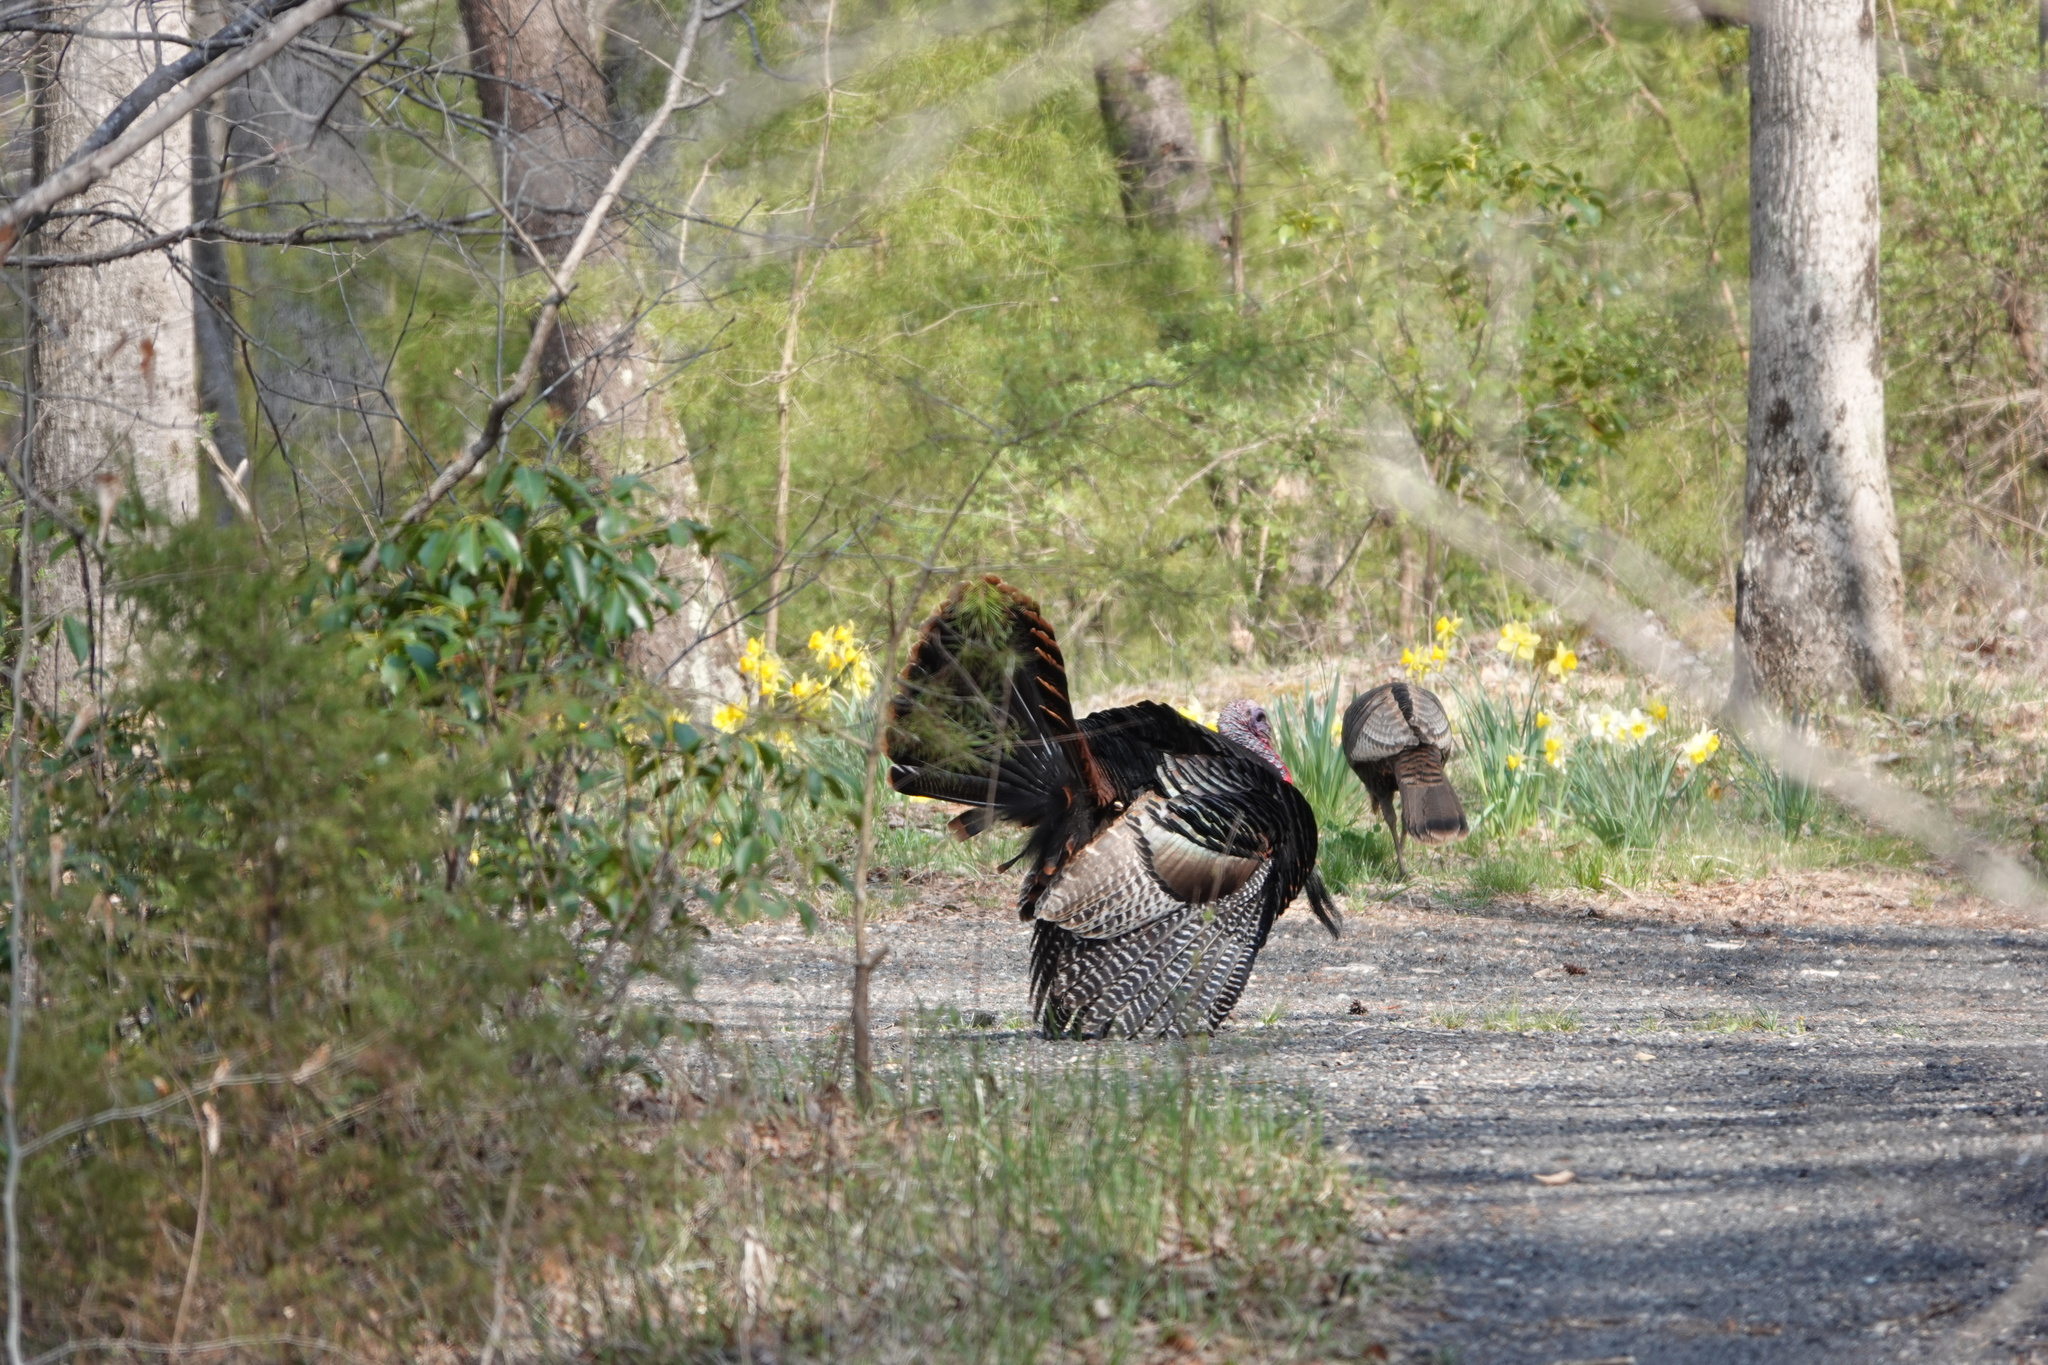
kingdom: Animalia
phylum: Chordata
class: Aves
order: Galliformes
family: Phasianidae
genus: Meleagris
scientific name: Meleagris gallopavo
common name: Wild turkey
